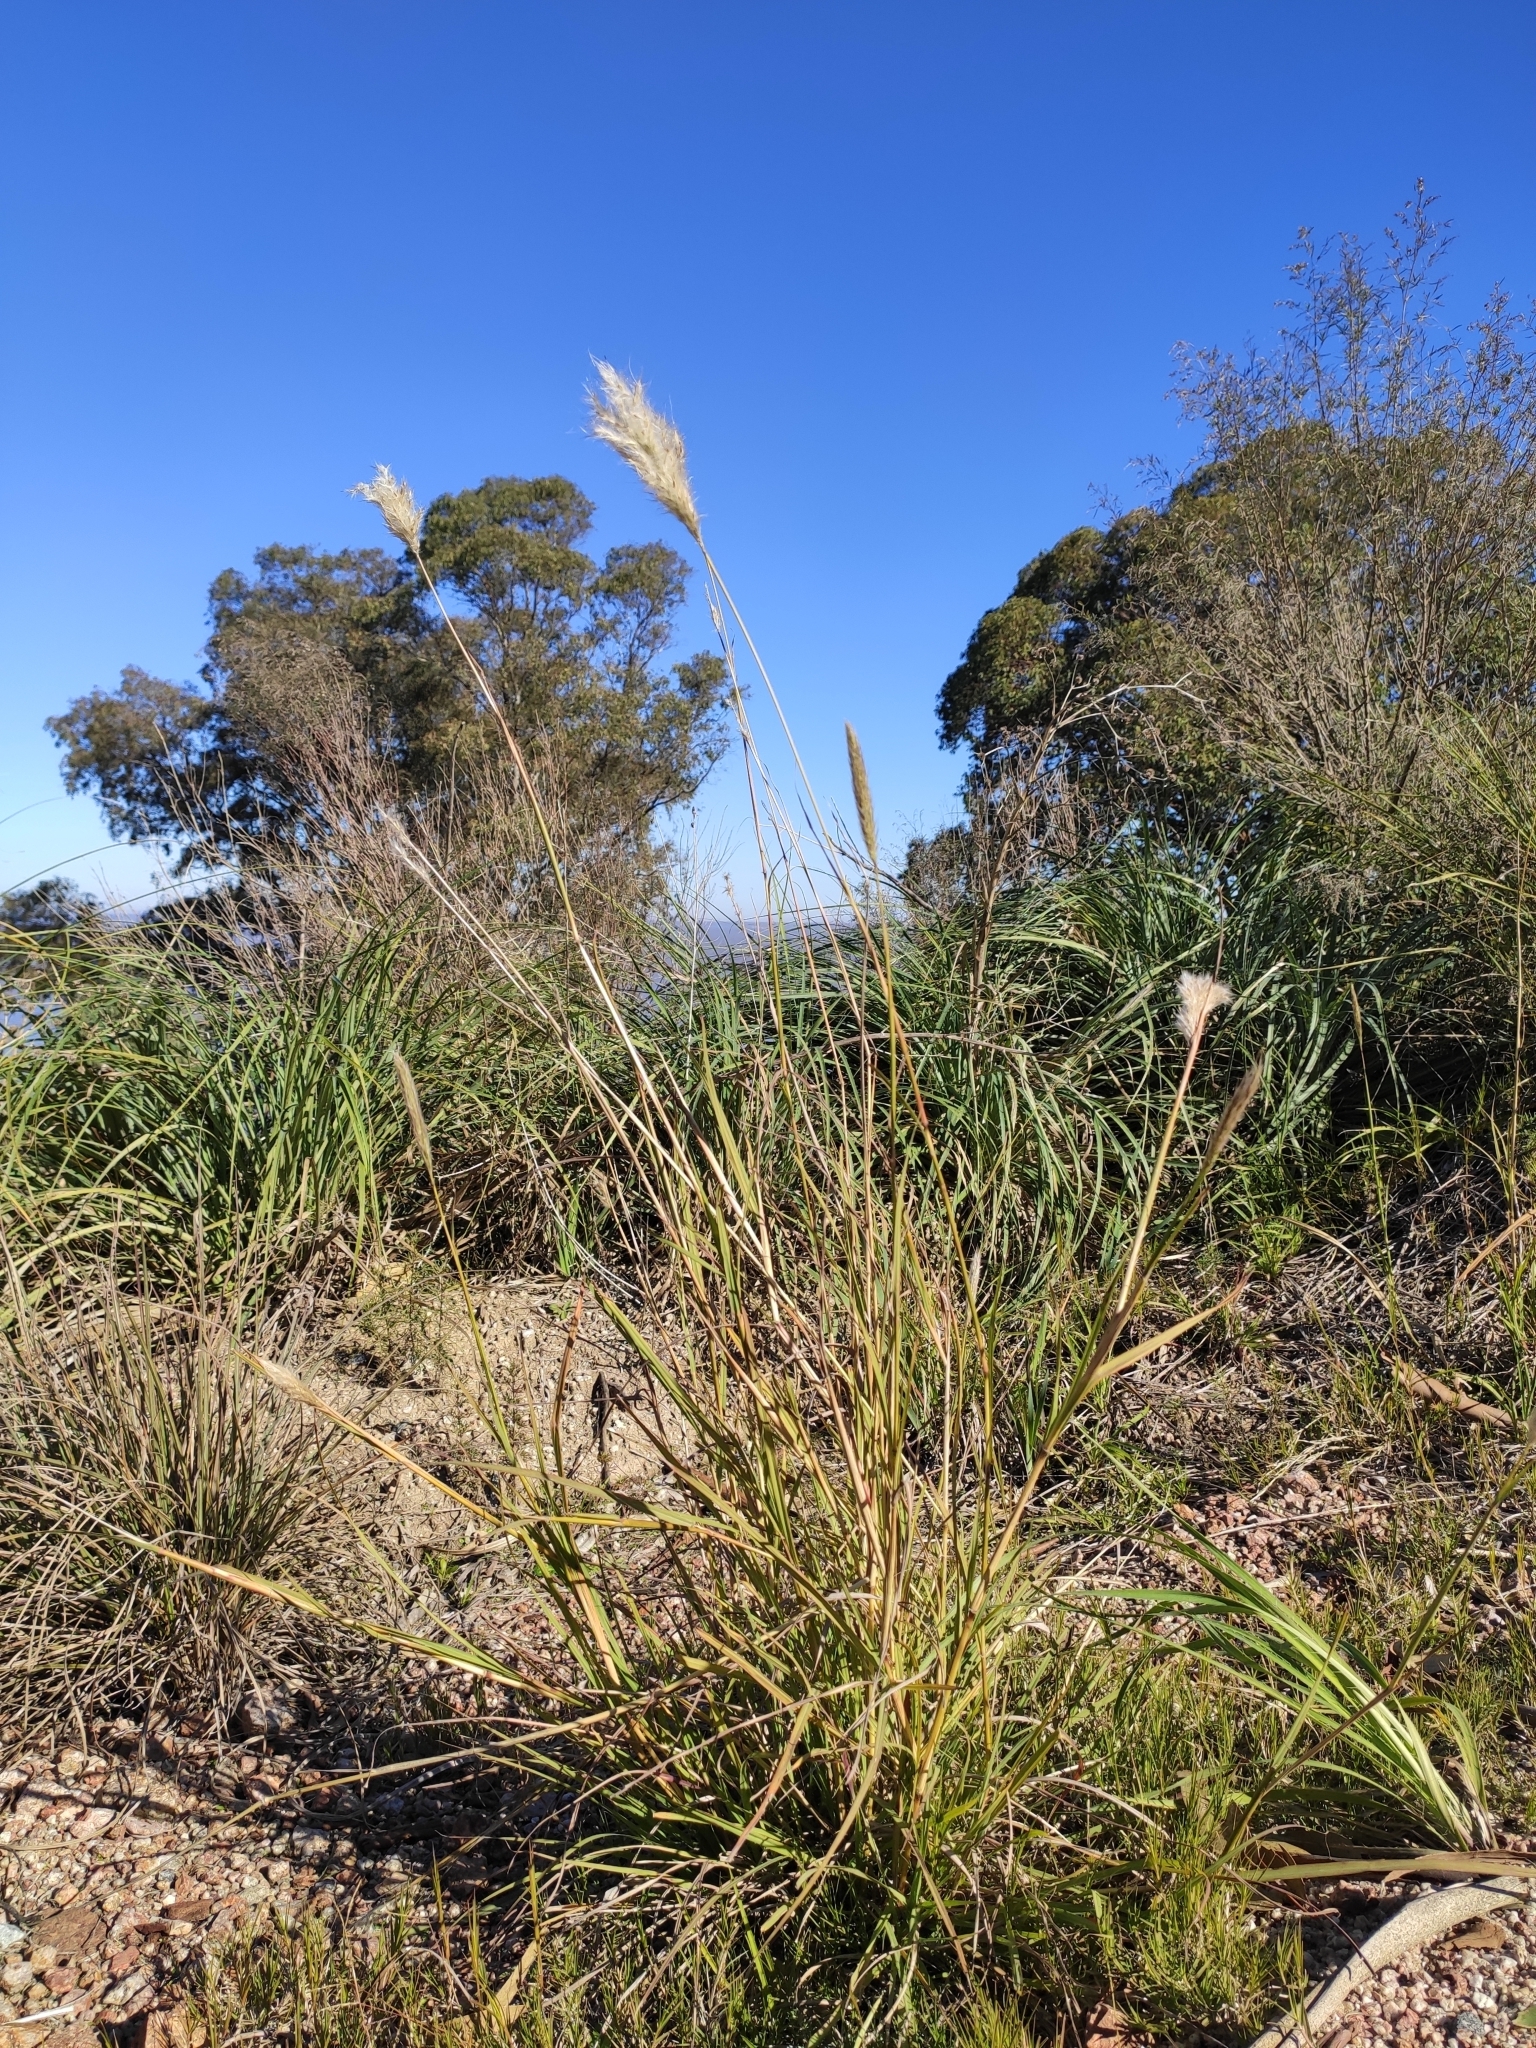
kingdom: Plantae
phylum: Tracheophyta
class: Liliopsida
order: Poales
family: Poaceae
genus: Bothriochloa
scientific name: Bothriochloa laguroides
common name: Silver bluestem
